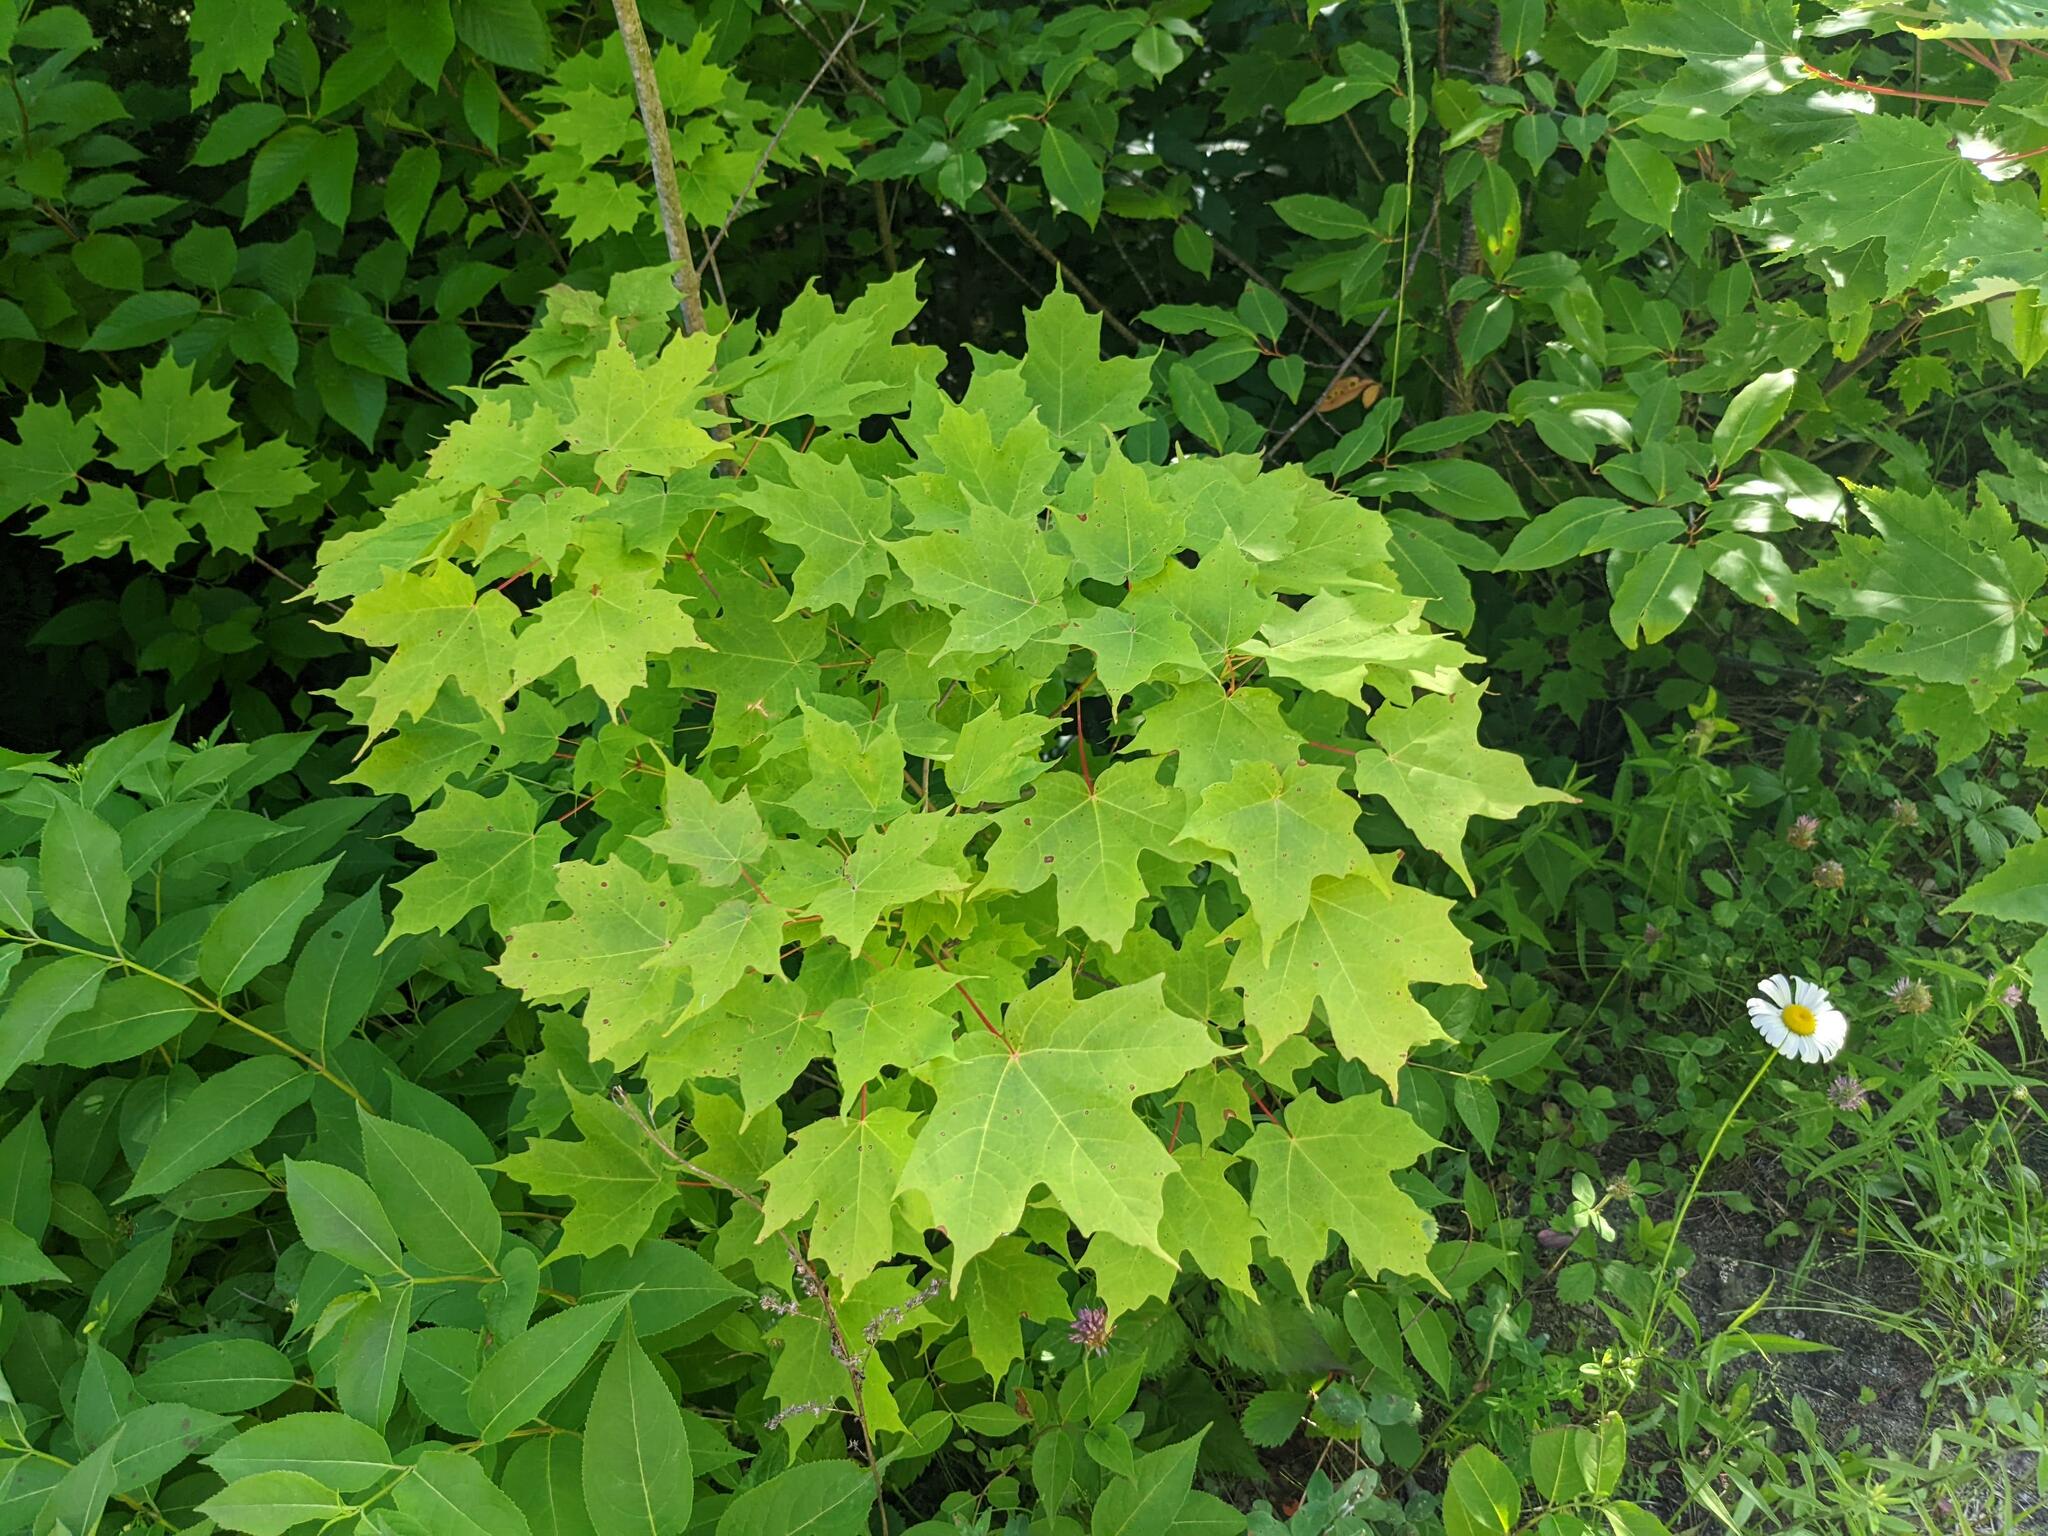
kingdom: Plantae
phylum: Tracheophyta
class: Magnoliopsida
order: Sapindales
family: Sapindaceae
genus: Acer
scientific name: Acer saccharum
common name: Sugar maple
